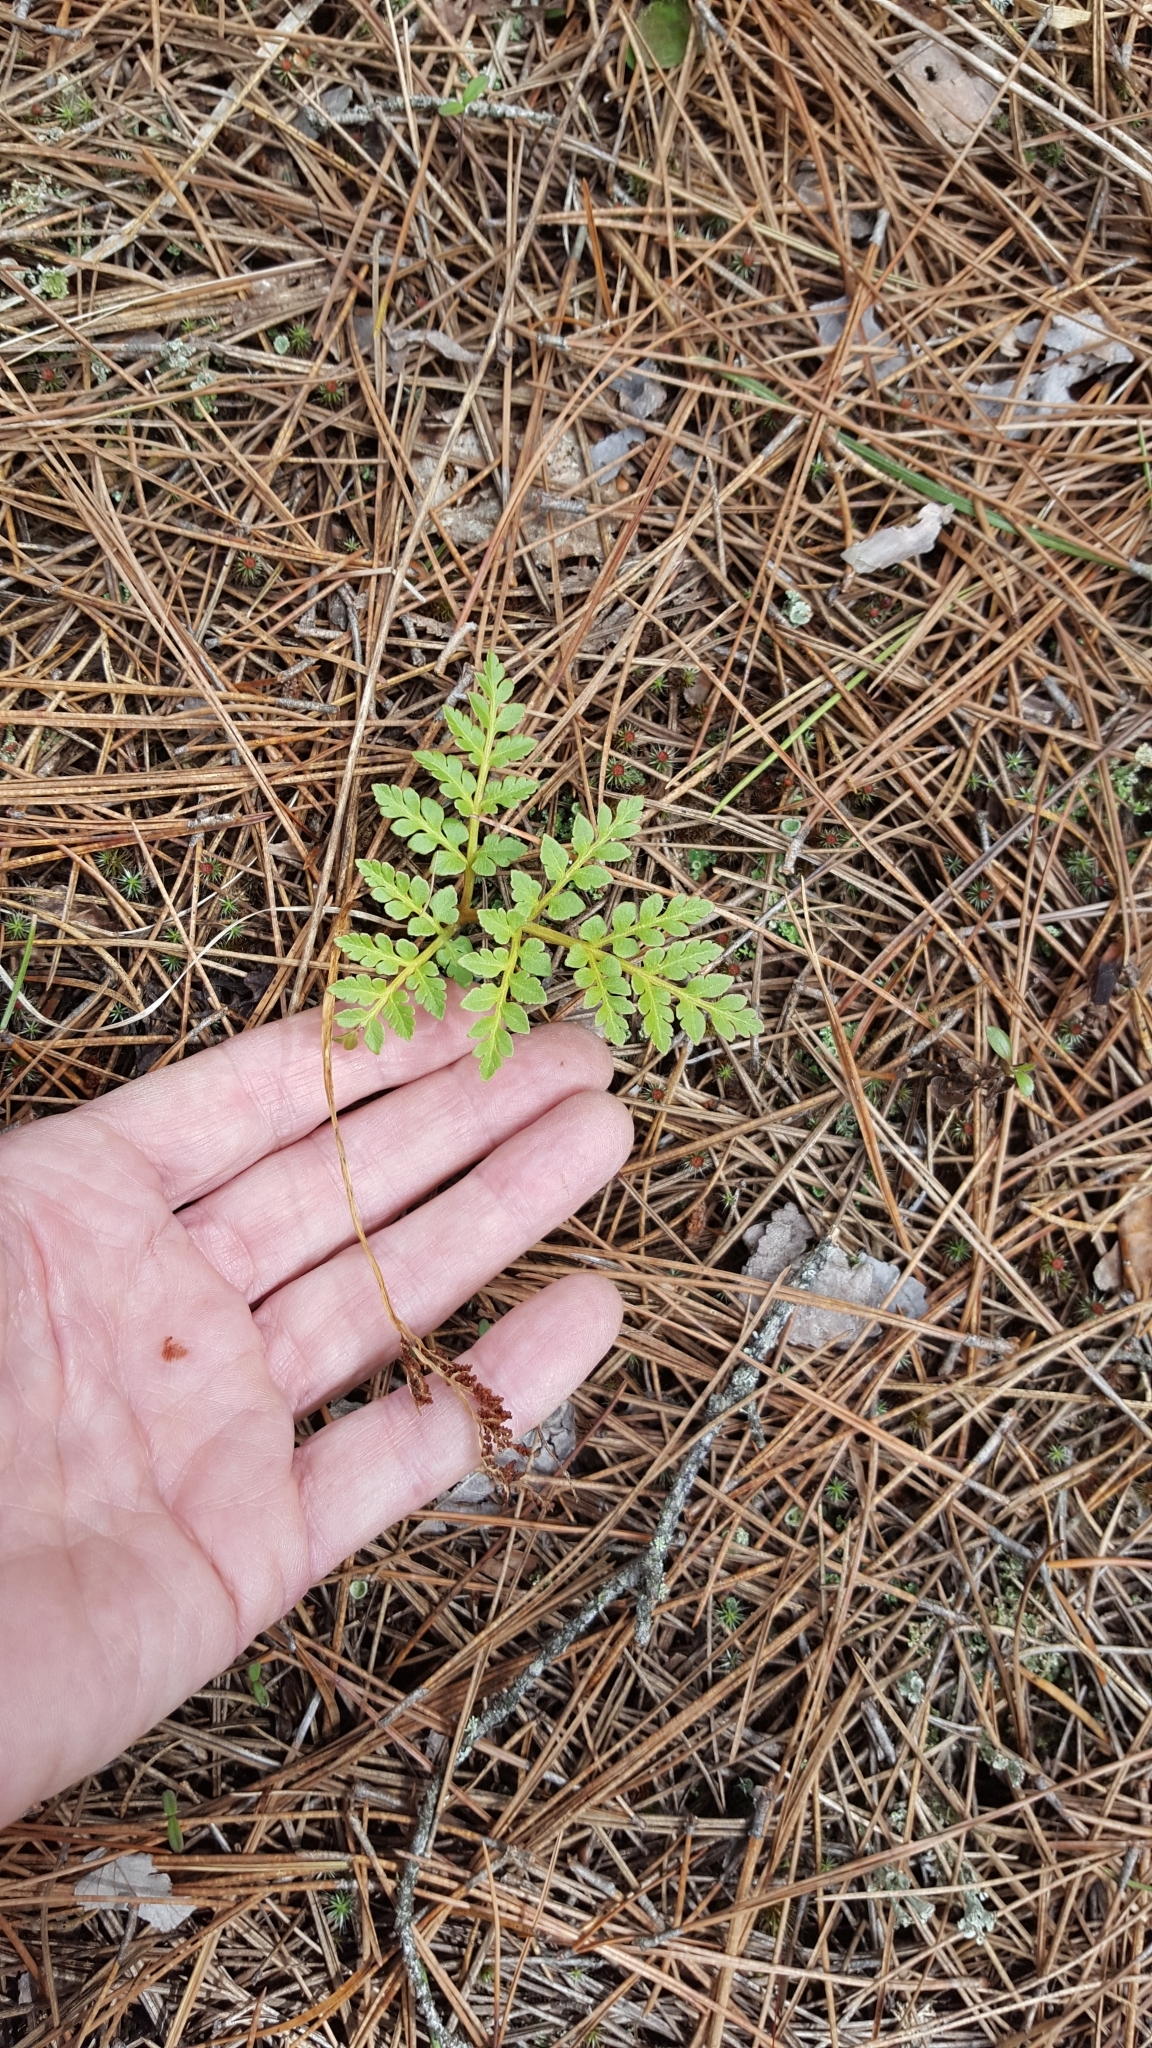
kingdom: Plantae
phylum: Tracheophyta
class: Polypodiopsida
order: Ophioglossales
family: Ophioglossaceae
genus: Sceptridium
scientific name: Sceptridium multifidum
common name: Leathery grape fern
